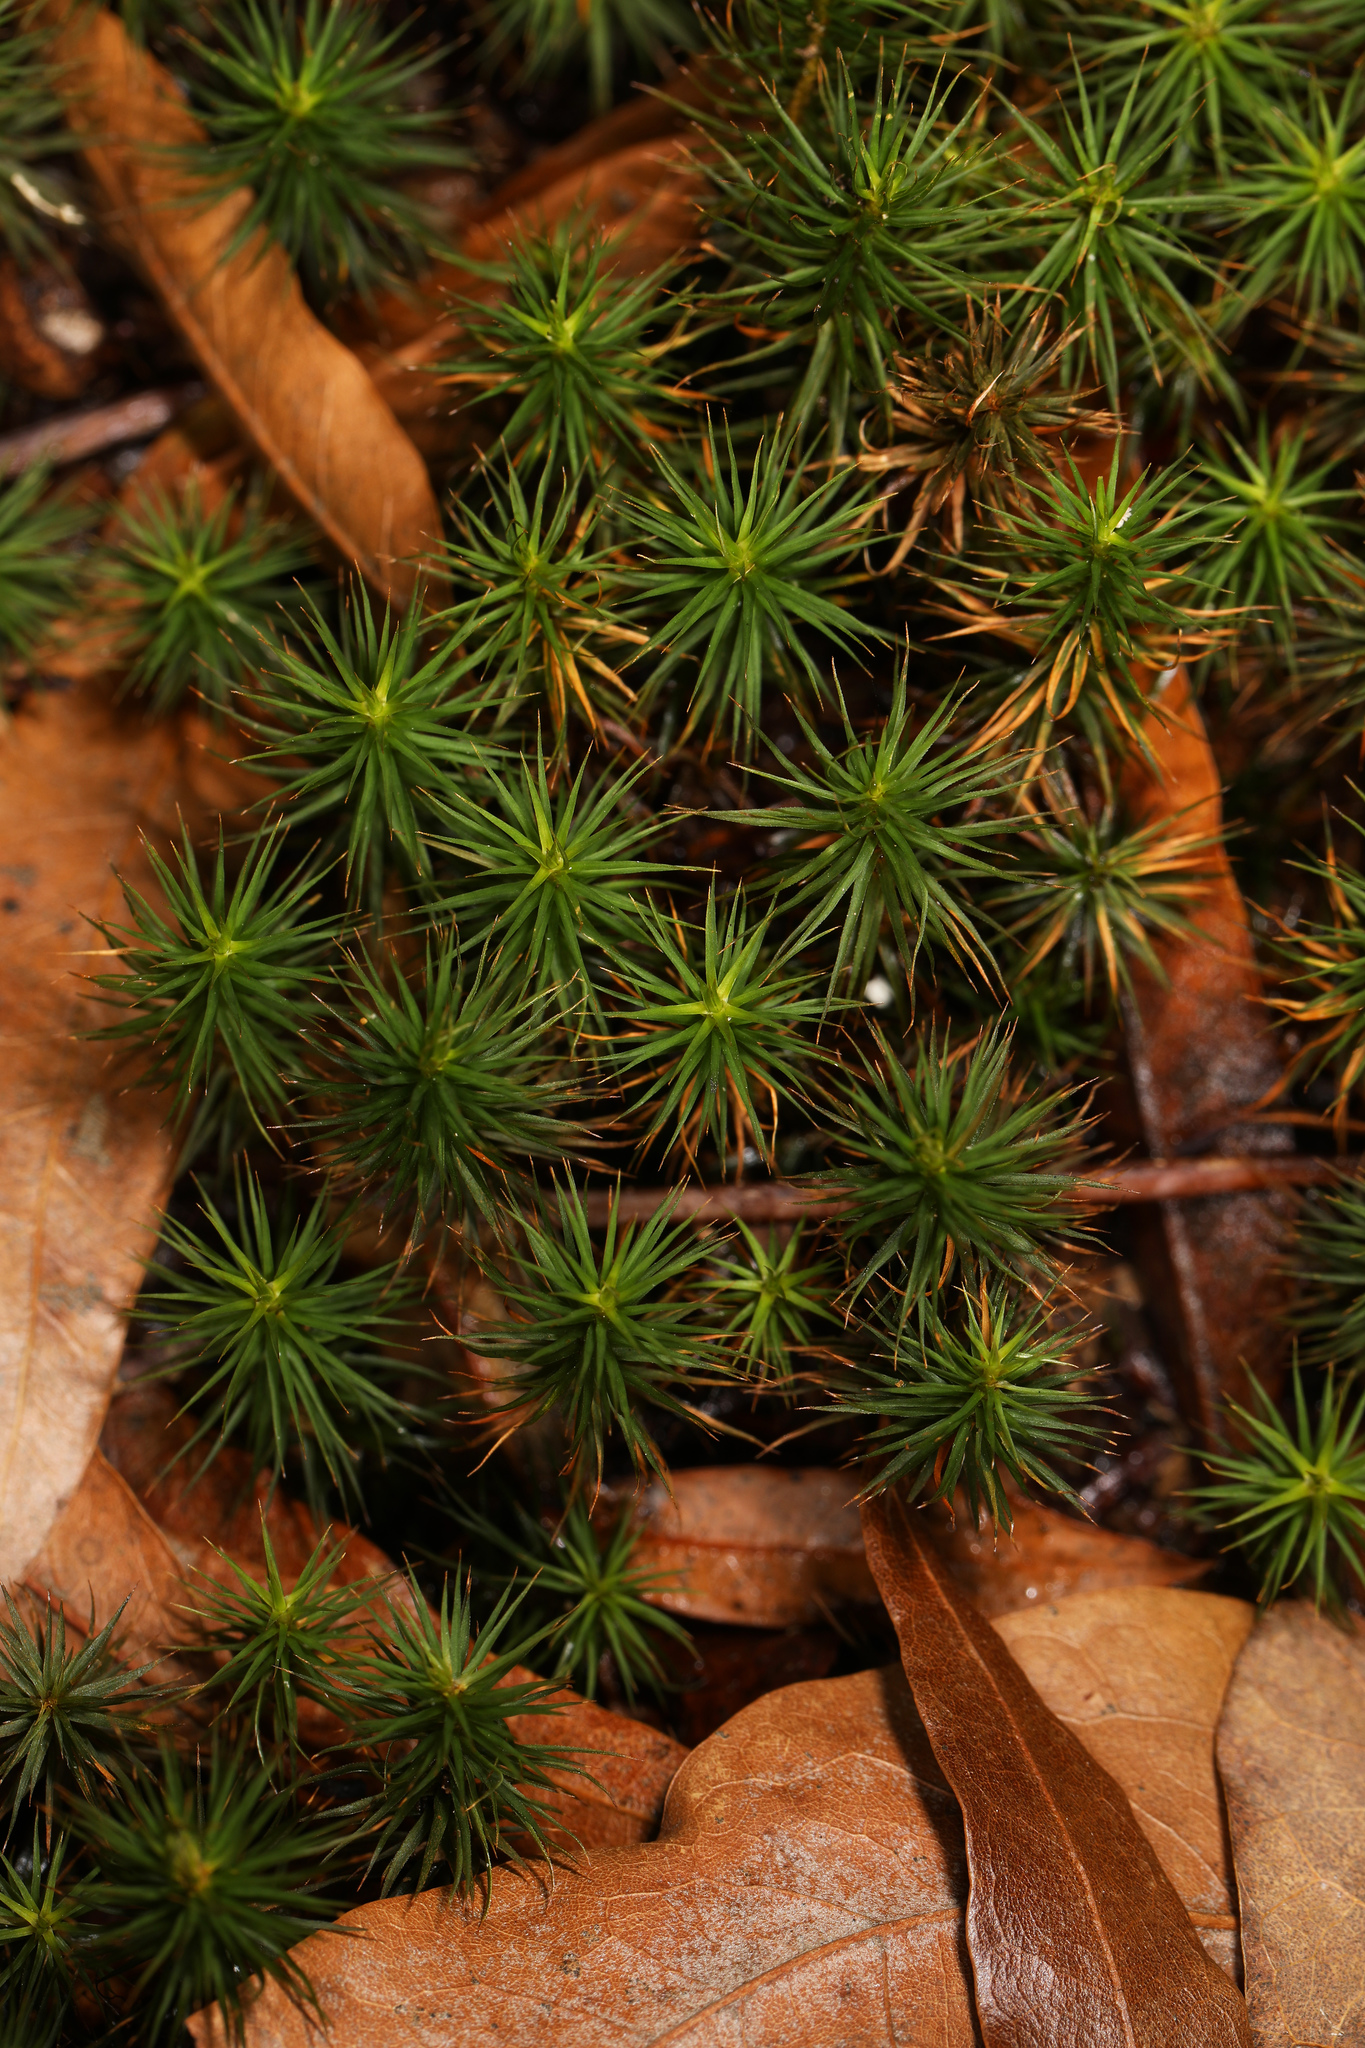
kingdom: Plantae
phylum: Bryophyta
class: Polytrichopsida
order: Polytrichales
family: Polytrichaceae
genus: Polytrichum
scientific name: Polytrichum juniperinum
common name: Juniper haircap moss
